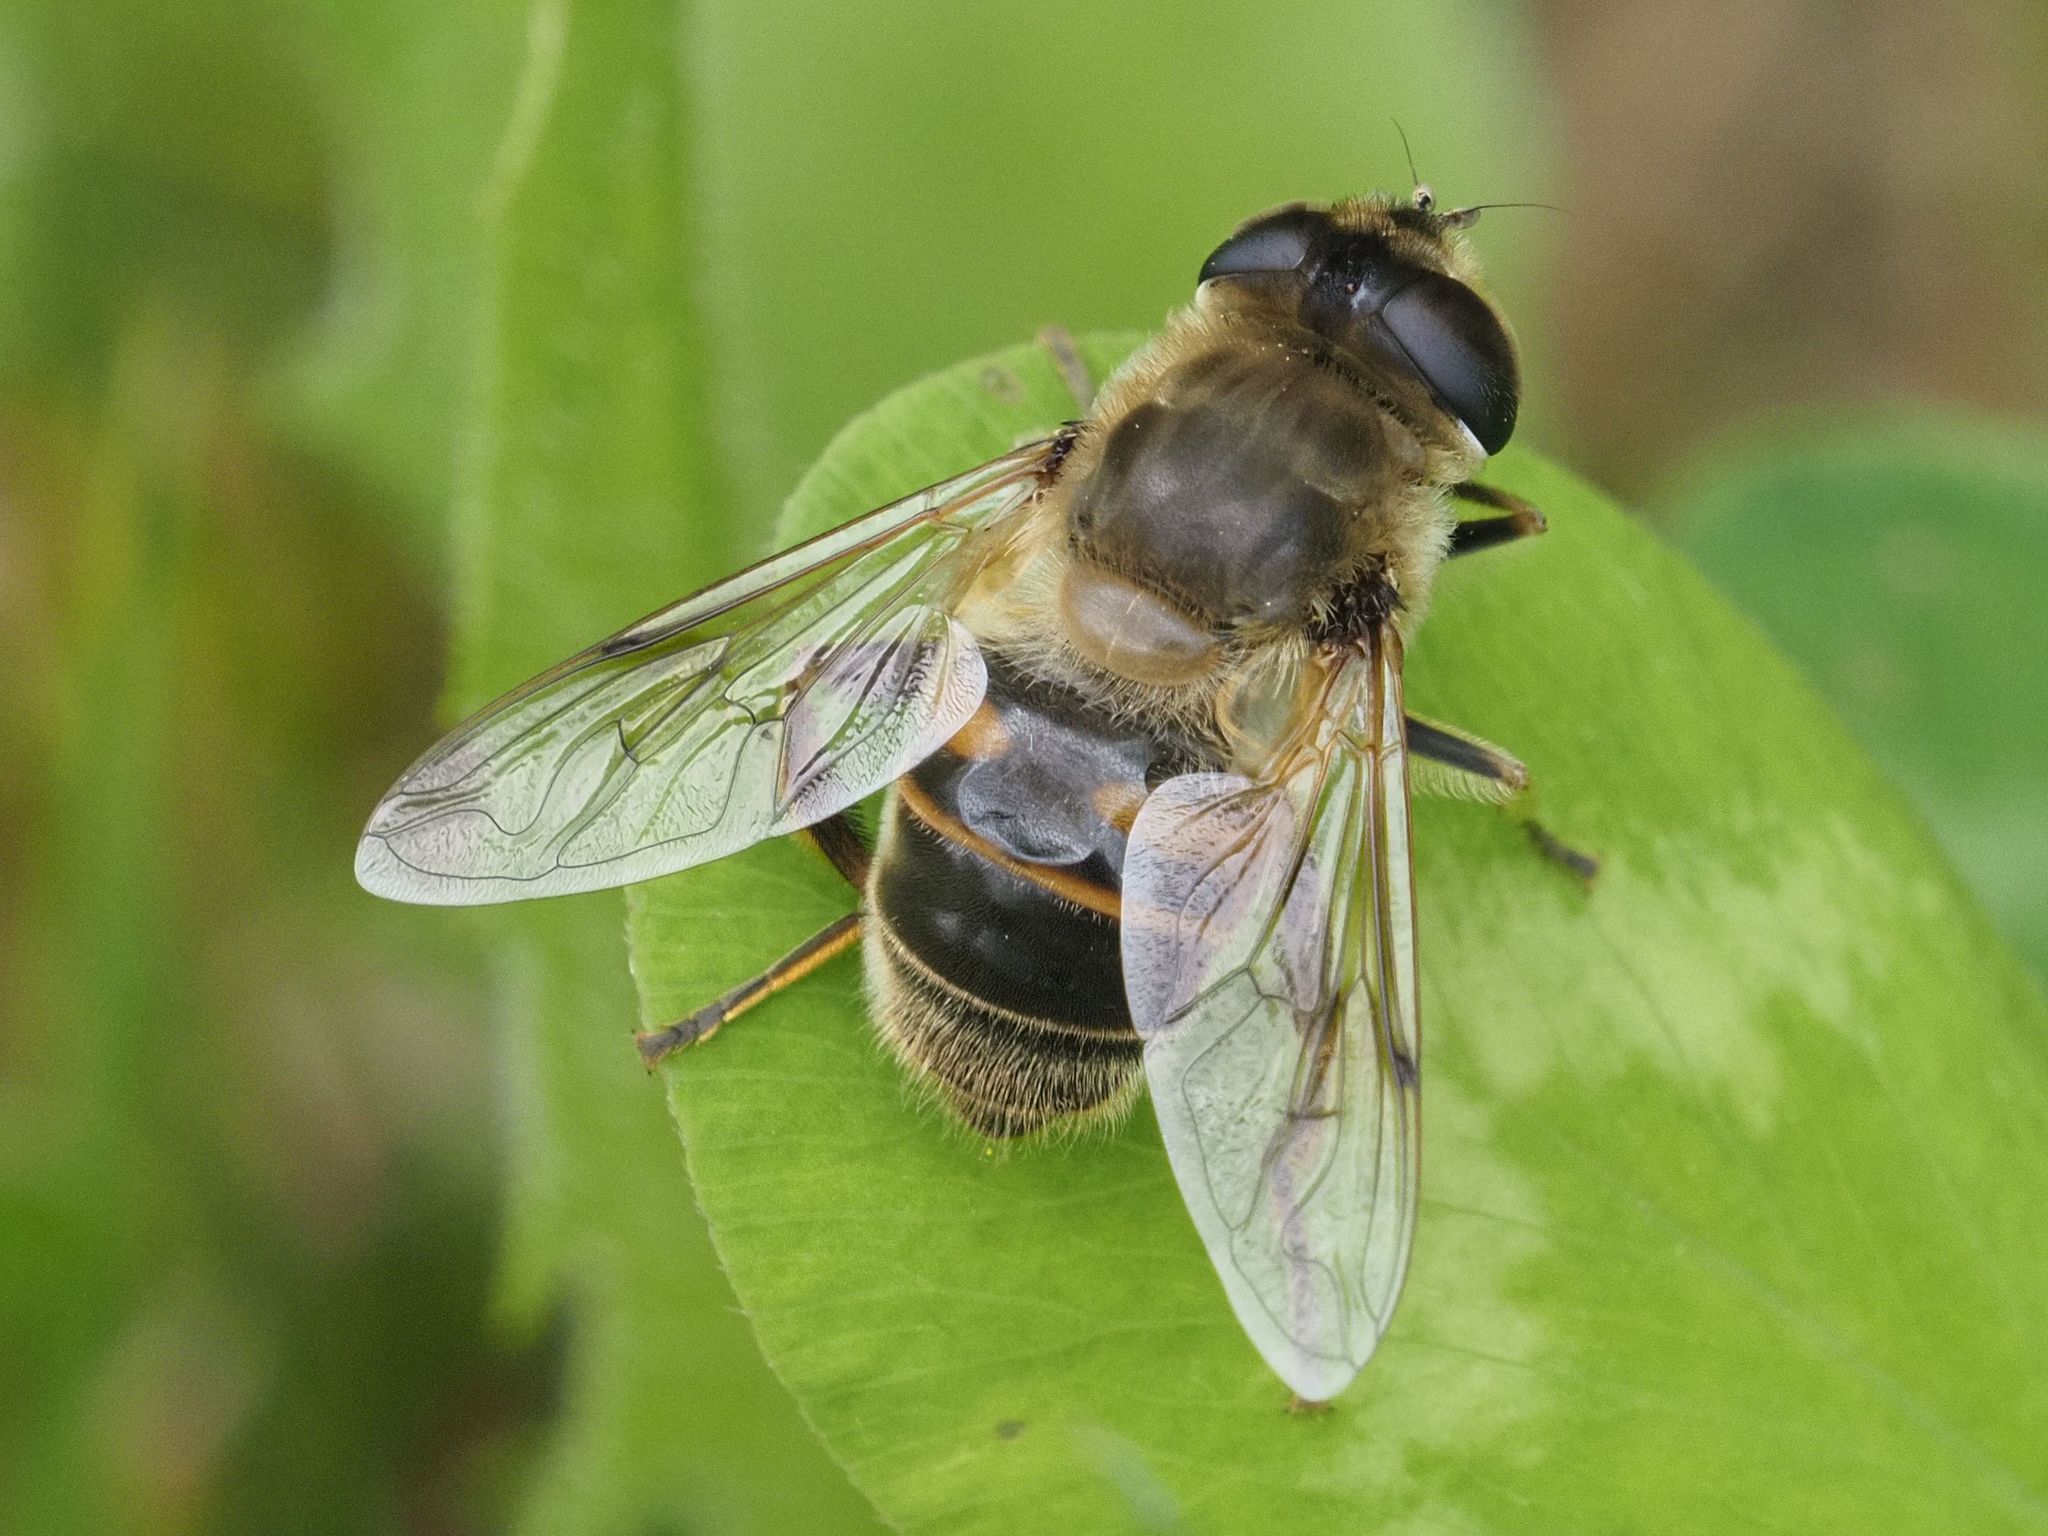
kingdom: Animalia
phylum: Arthropoda
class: Insecta
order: Diptera
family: Syrphidae
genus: Eristalis
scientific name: Eristalis tenax
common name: Drone fly
